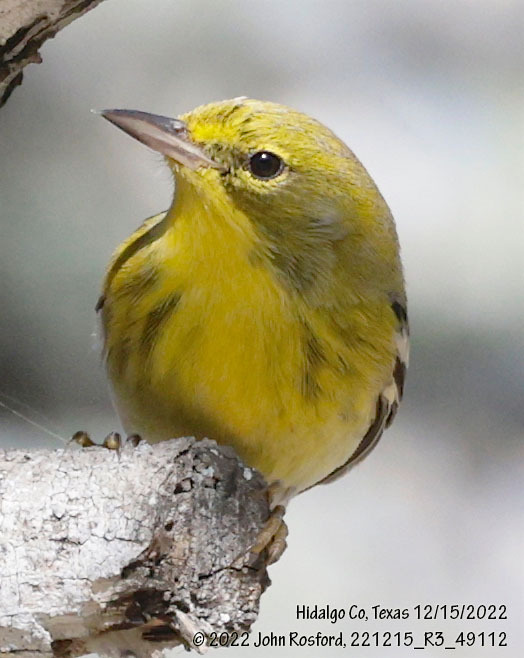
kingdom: Animalia
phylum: Chordata
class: Aves
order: Passeriformes
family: Parulidae
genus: Setophaga
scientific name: Setophaga pinus
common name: Pine warbler
